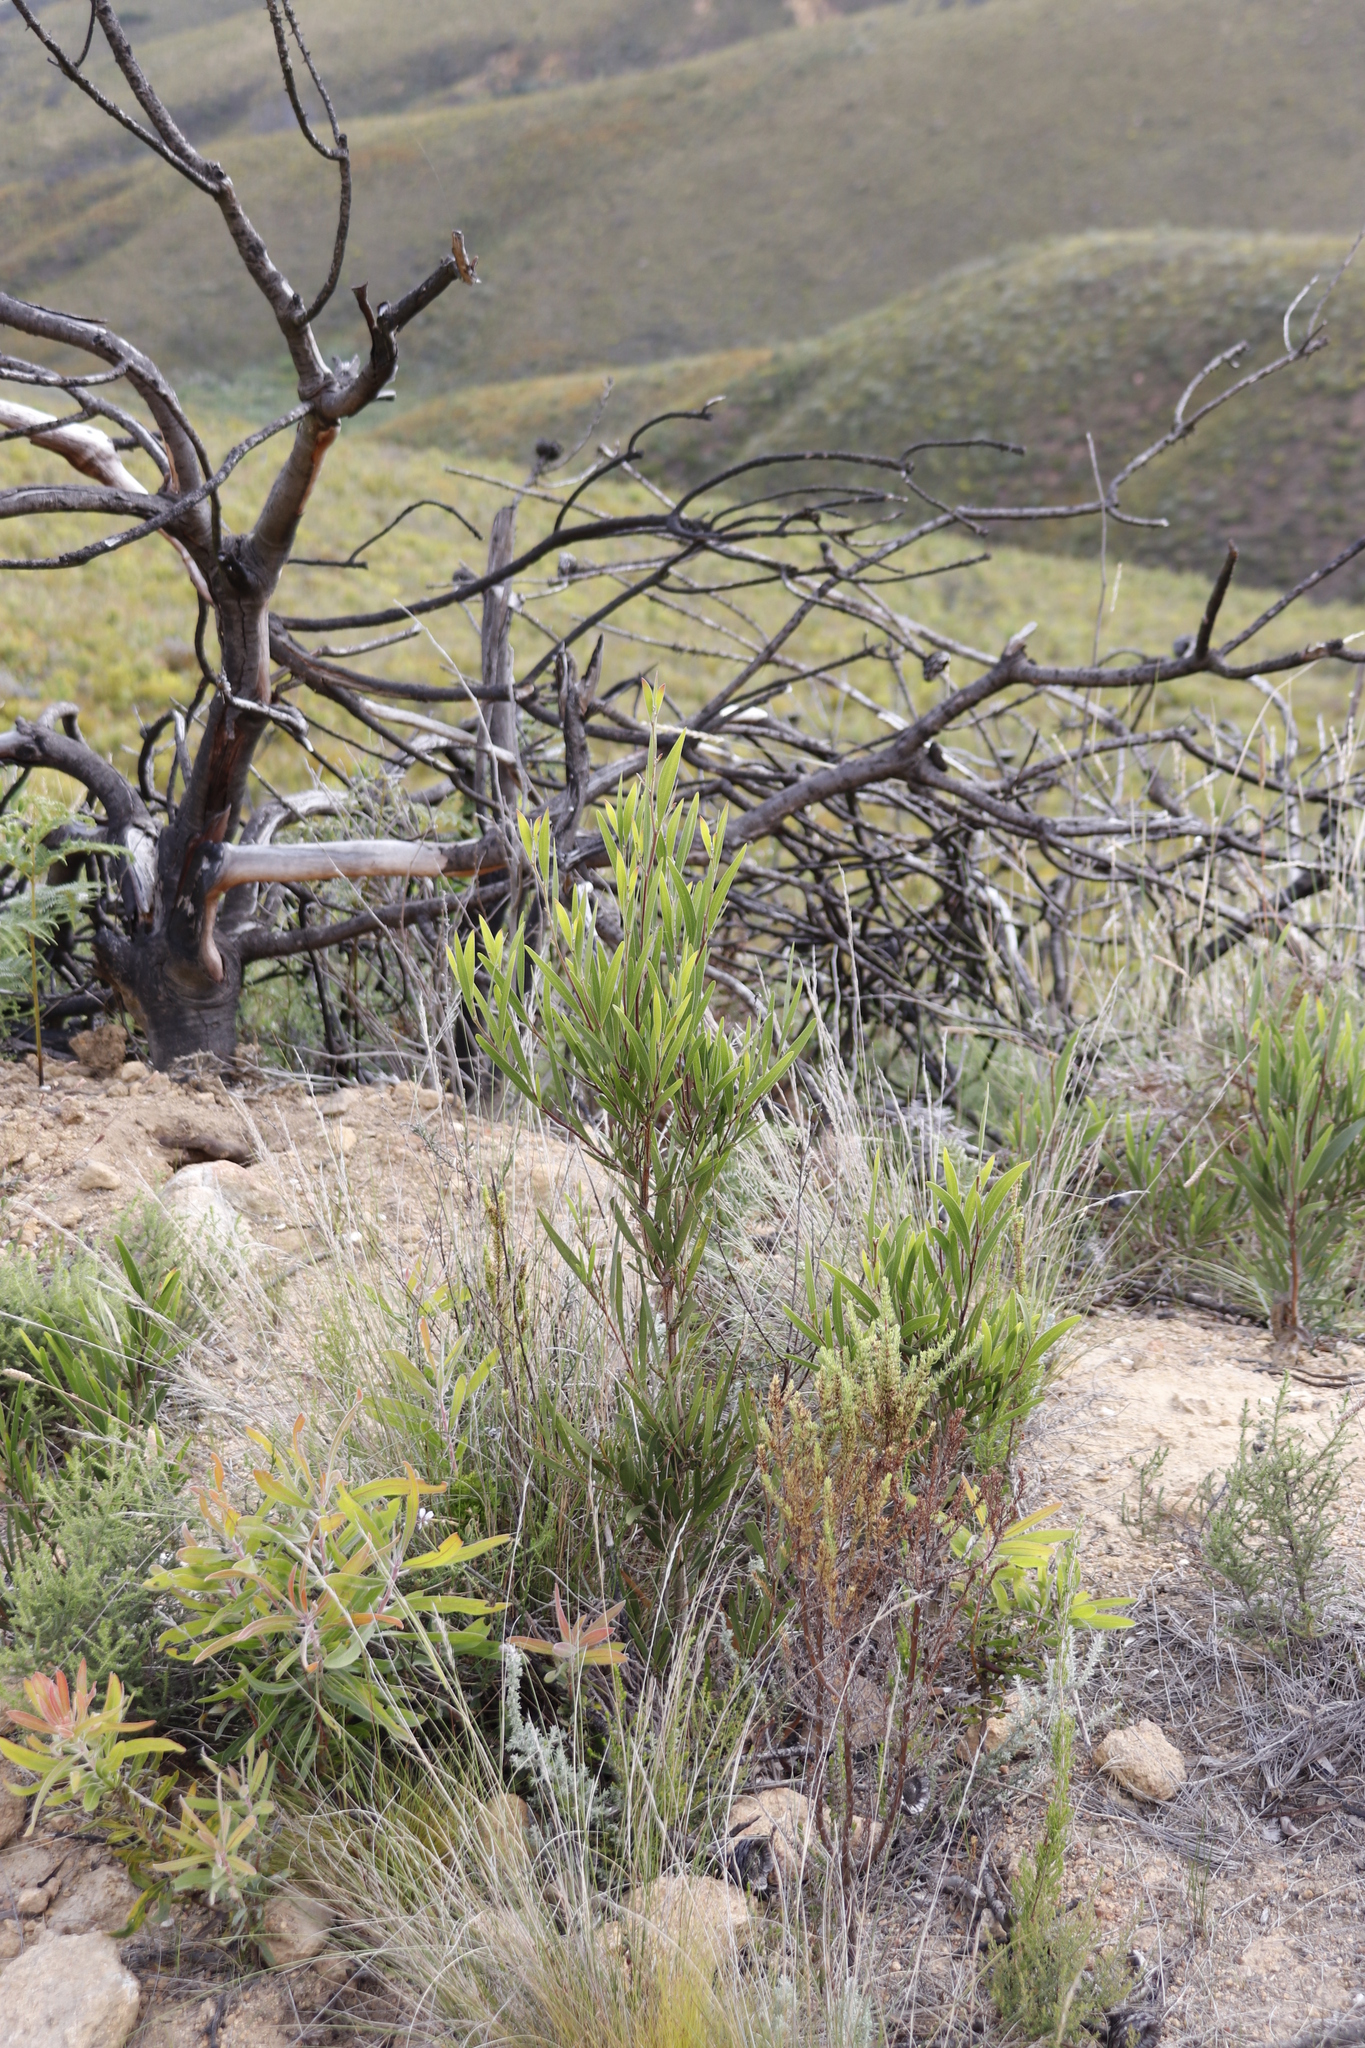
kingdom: Plantae
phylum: Tracheophyta
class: Magnoliopsida
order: Fabales
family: Fabaceae
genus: Acacia
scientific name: Acacia melanoxylon
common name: Blackwood
